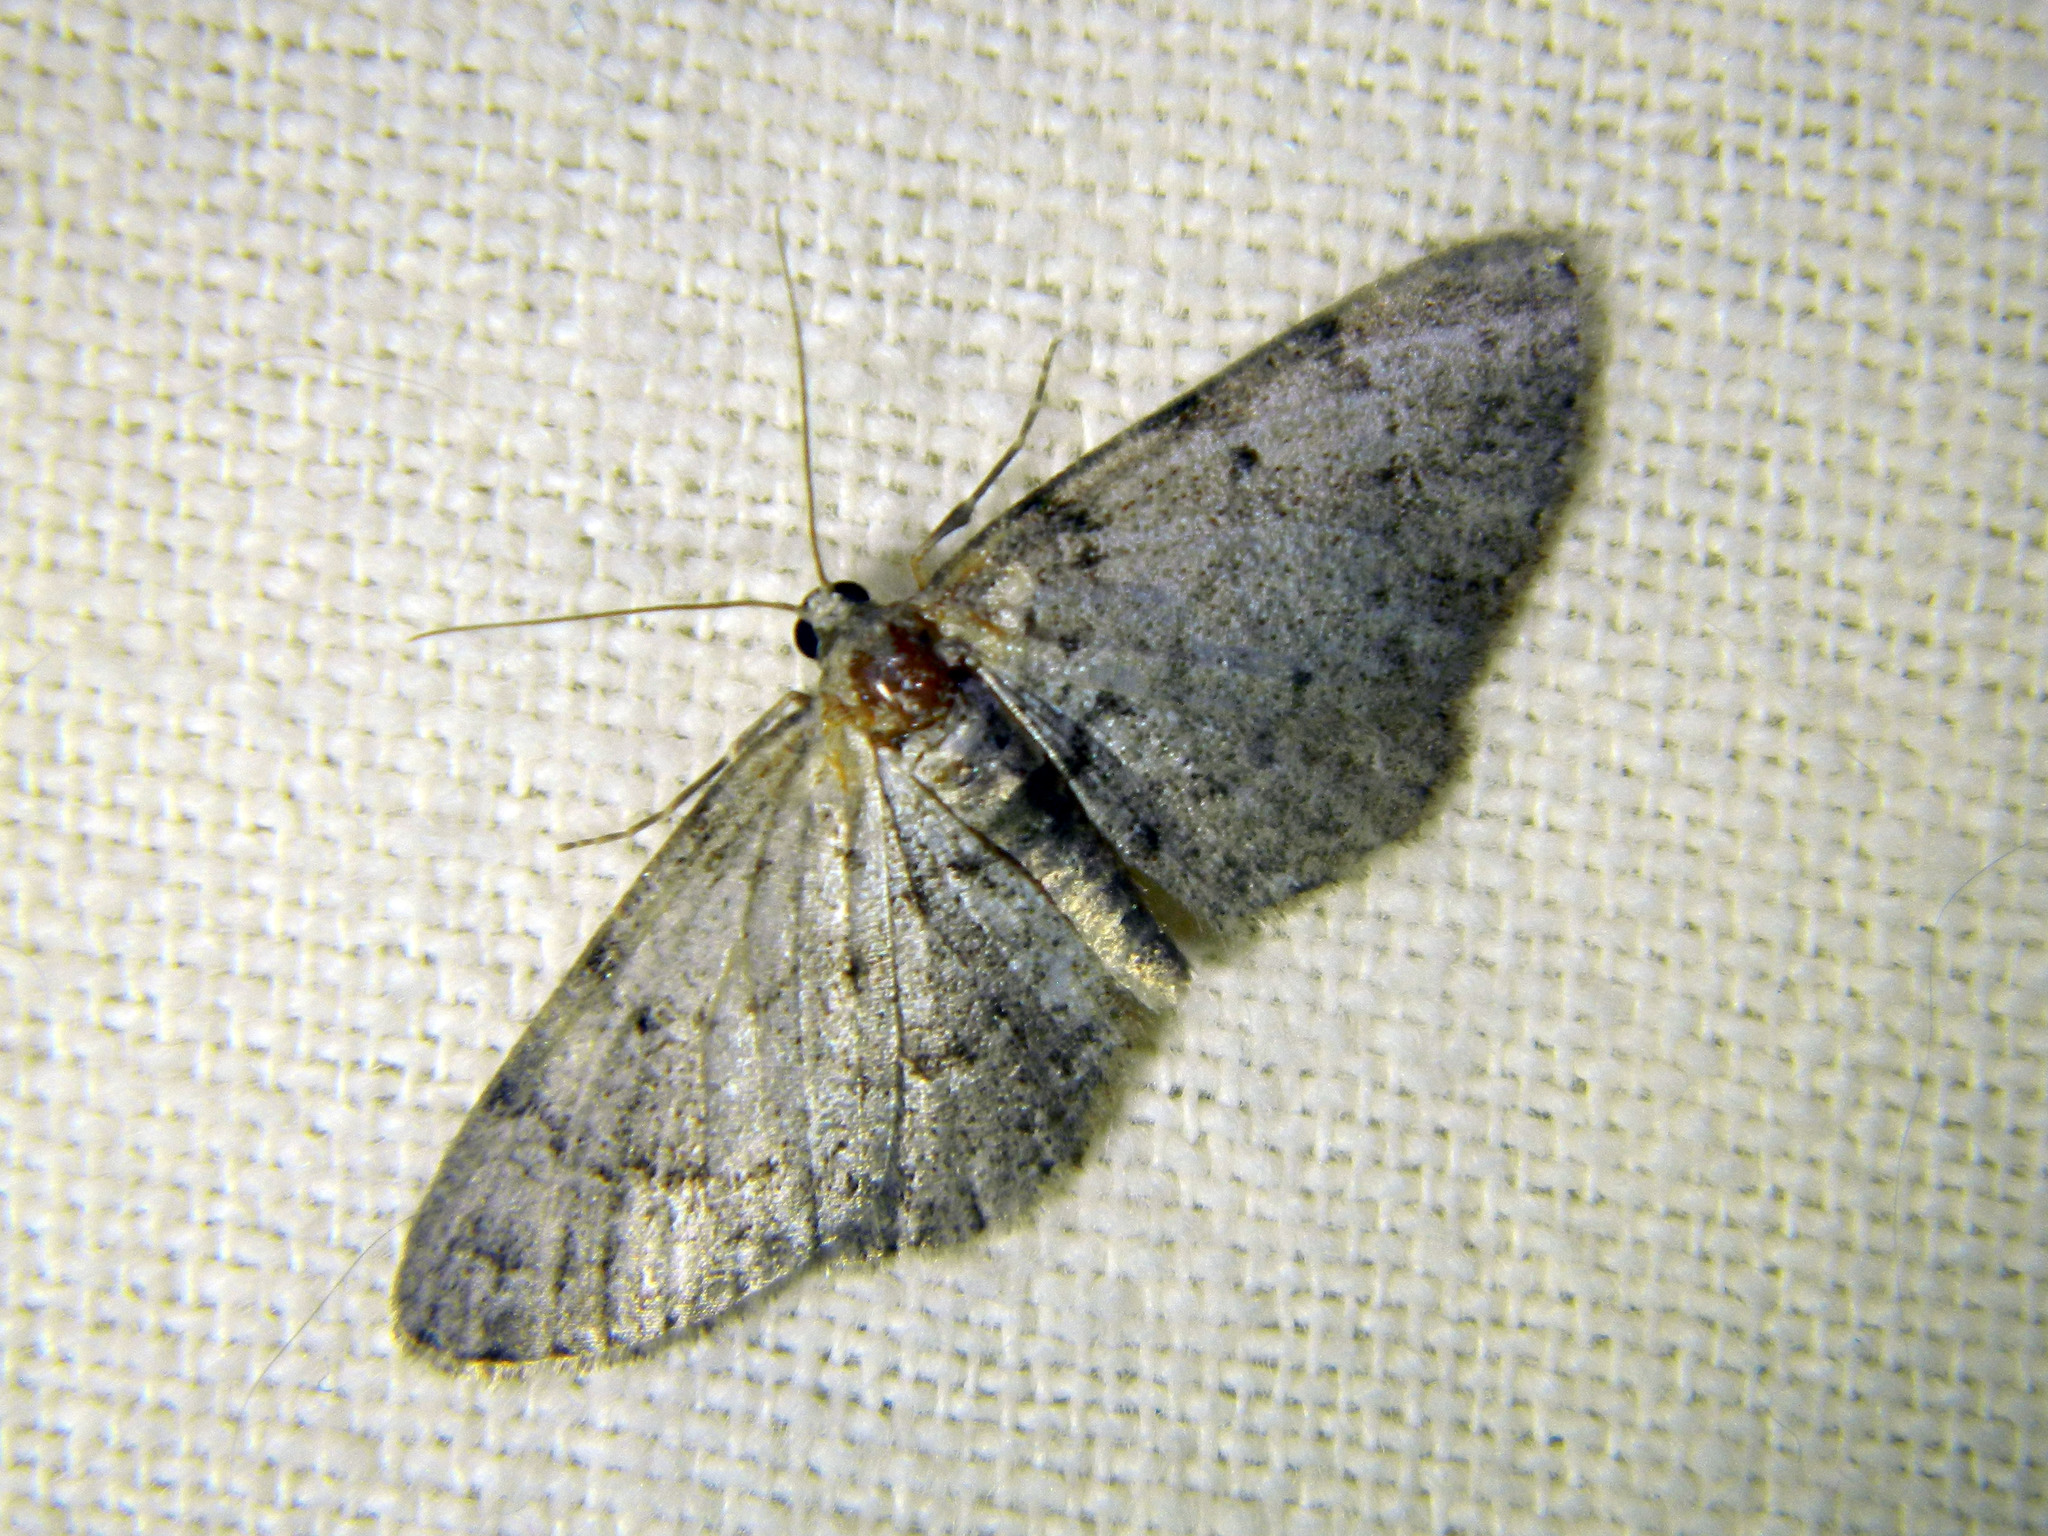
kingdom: Animalia
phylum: Arthropoda
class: Insecta
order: Lepidoptera
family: Geometridae
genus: Aethalura
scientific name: Aethalura intertexta
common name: Four-barred gray
